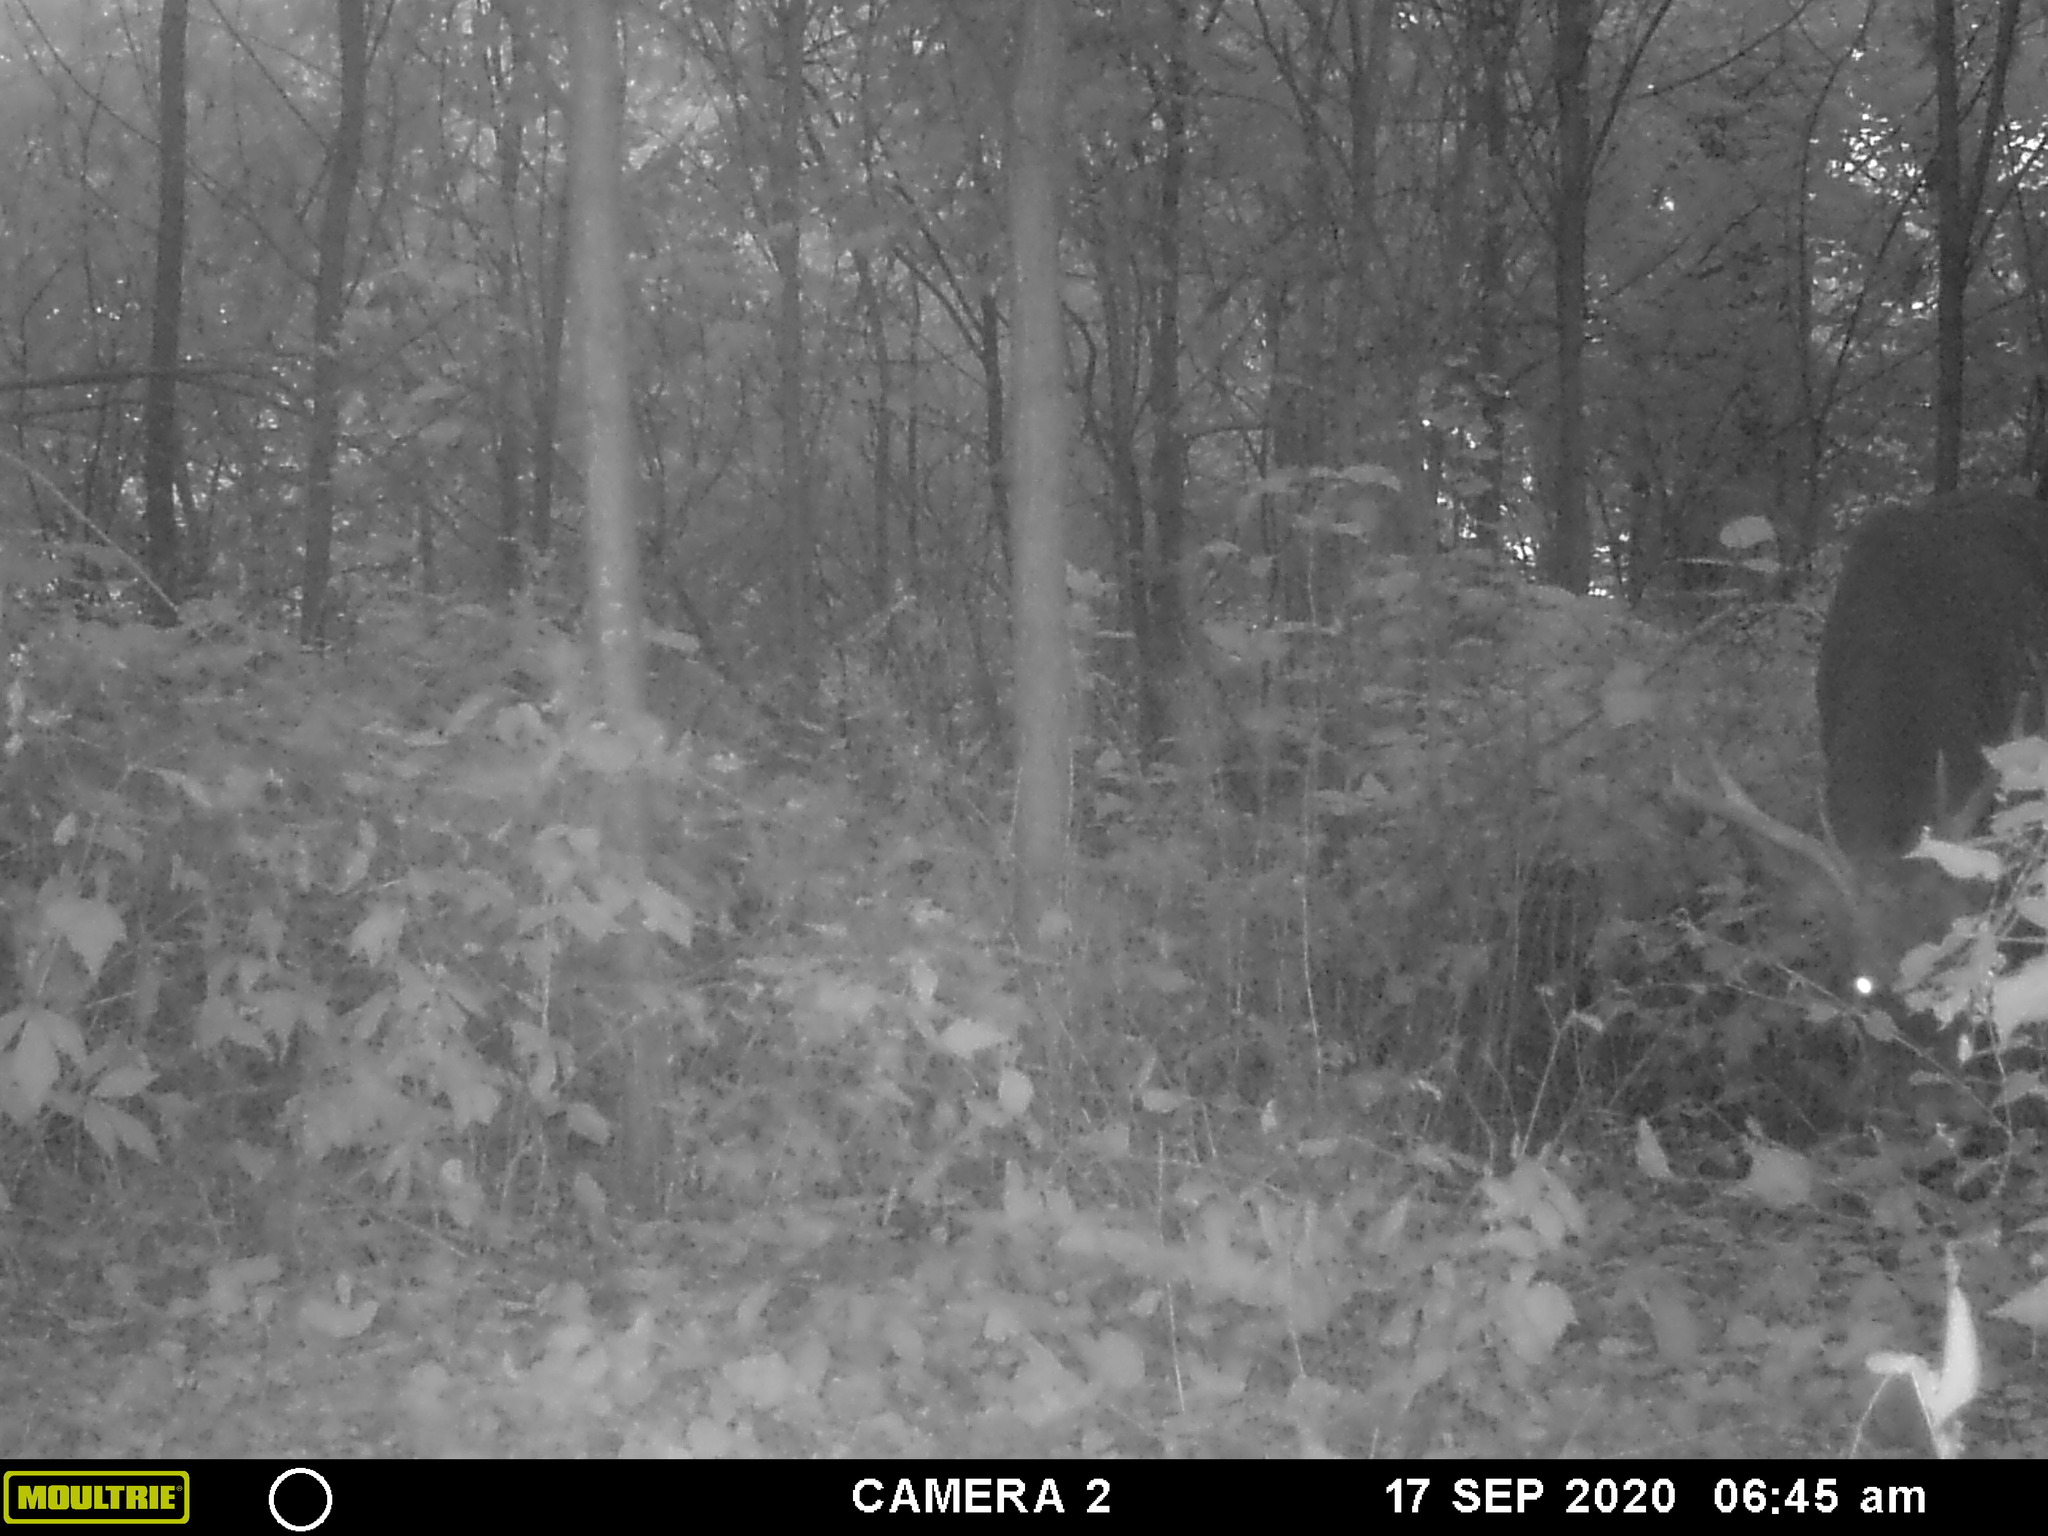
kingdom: Animalia
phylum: Chordata
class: Mammalia
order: Artiodactyla
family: Cervidae
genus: Odocoileus
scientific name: Odocoileus virginianus
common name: White-tailed deer
